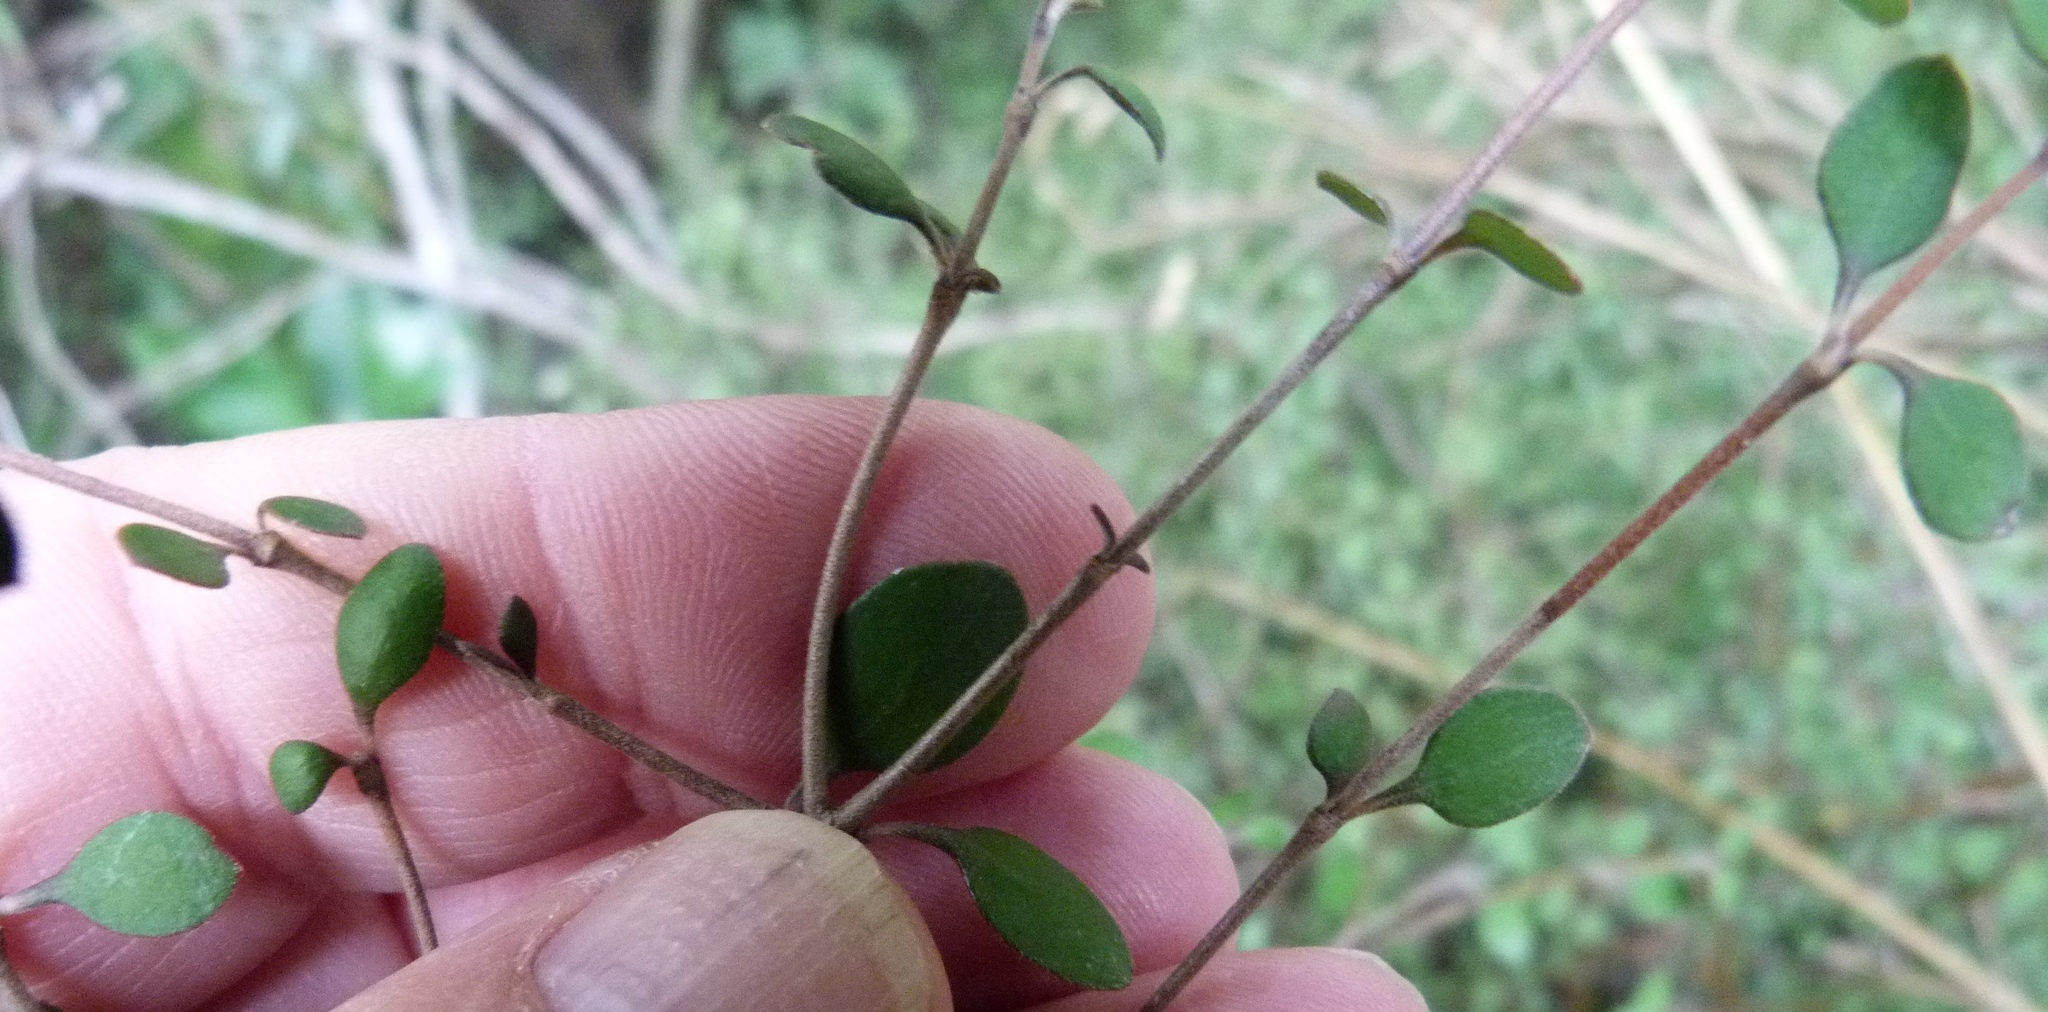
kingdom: Plantae
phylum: Tracheophyta
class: Magnoliopsida
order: Gentianales
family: Rubiaceae
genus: Coprosma
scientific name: Coprosma rubra
